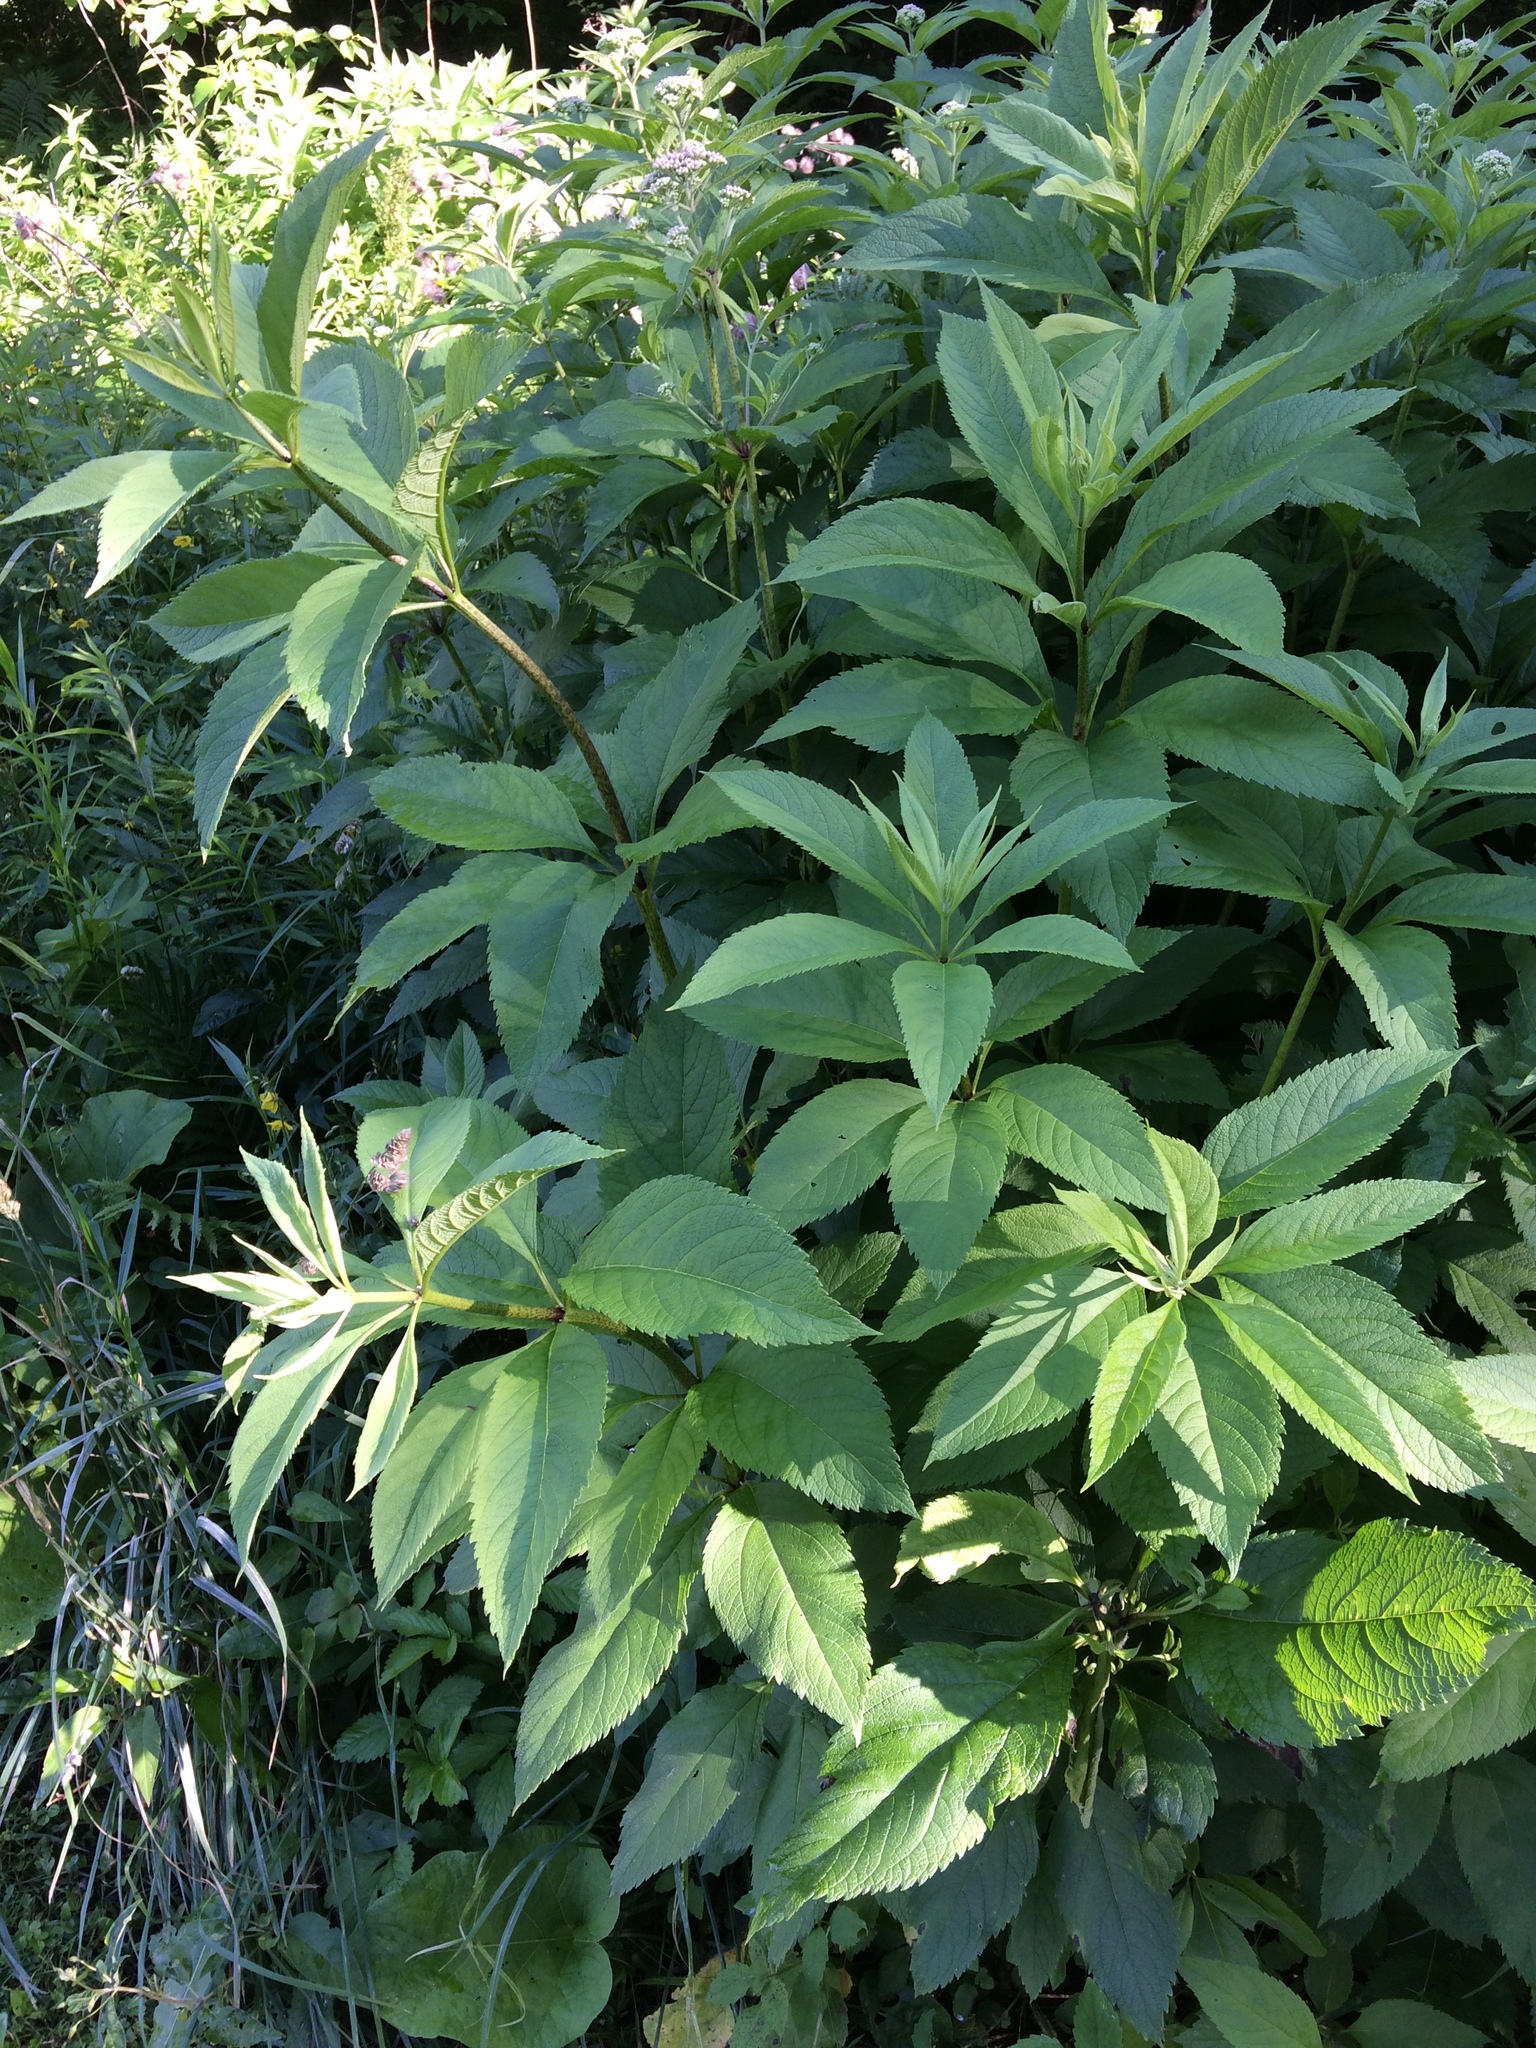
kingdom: Plantae
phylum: Tracheophyta
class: Magnoliopsida
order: Asterales
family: Asteraceae
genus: Eutrochium
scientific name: Eutrochium maculatum
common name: Spotted joe pye weed
